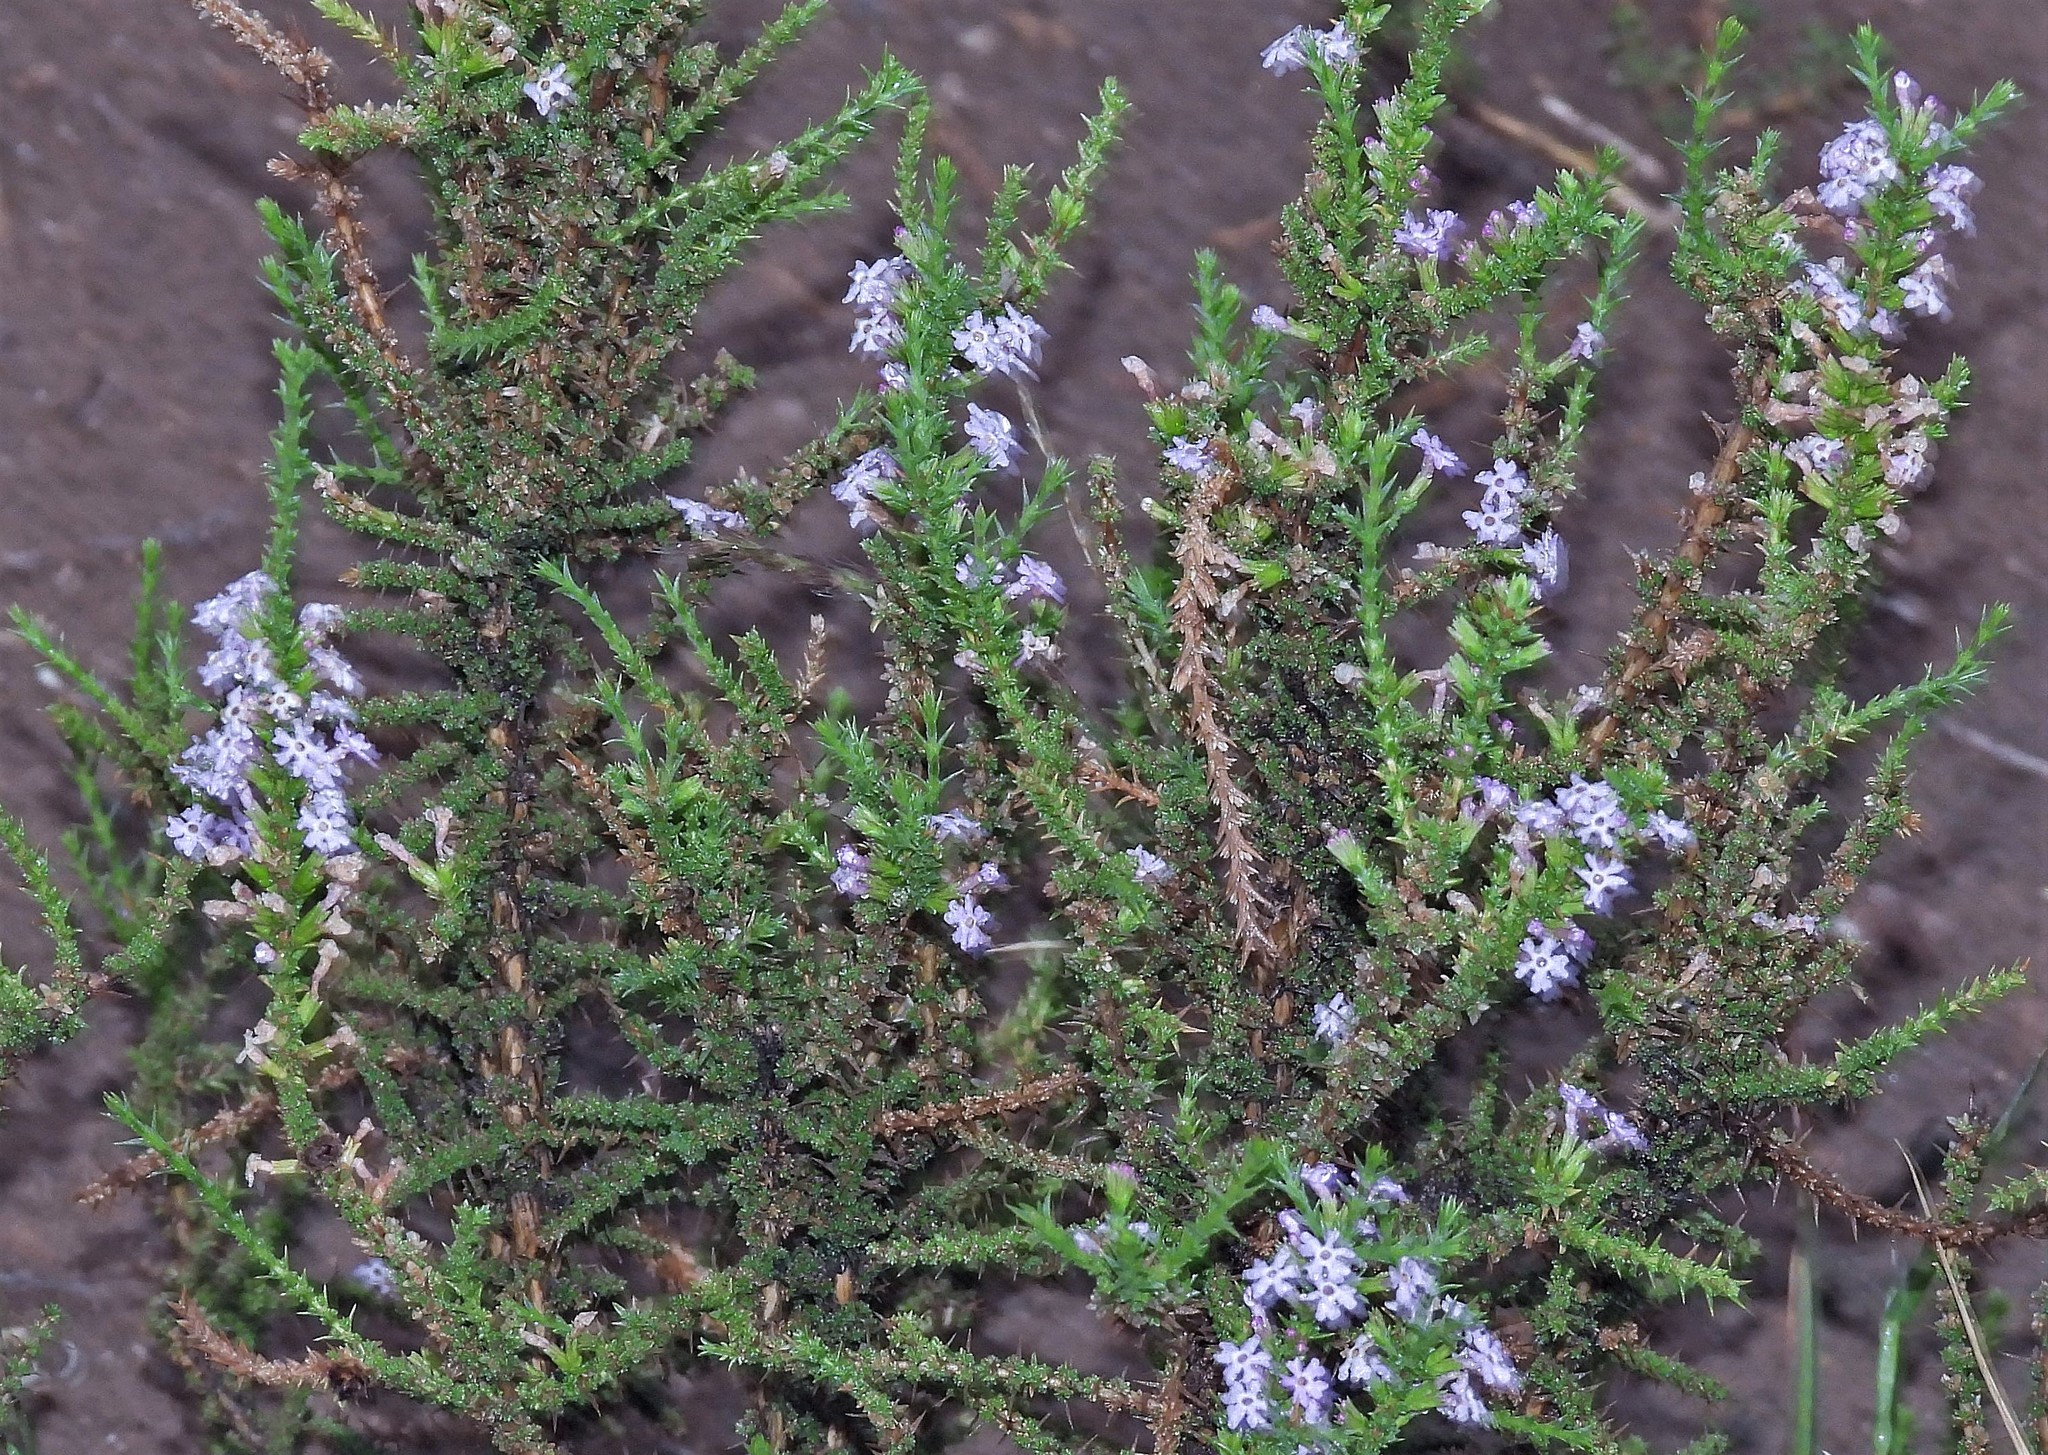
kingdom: Plantae
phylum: Tracheophyta
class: Magnoliopsida
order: Lamiales
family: Verbenaceae
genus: Junellia
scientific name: Junellia seriphioides
